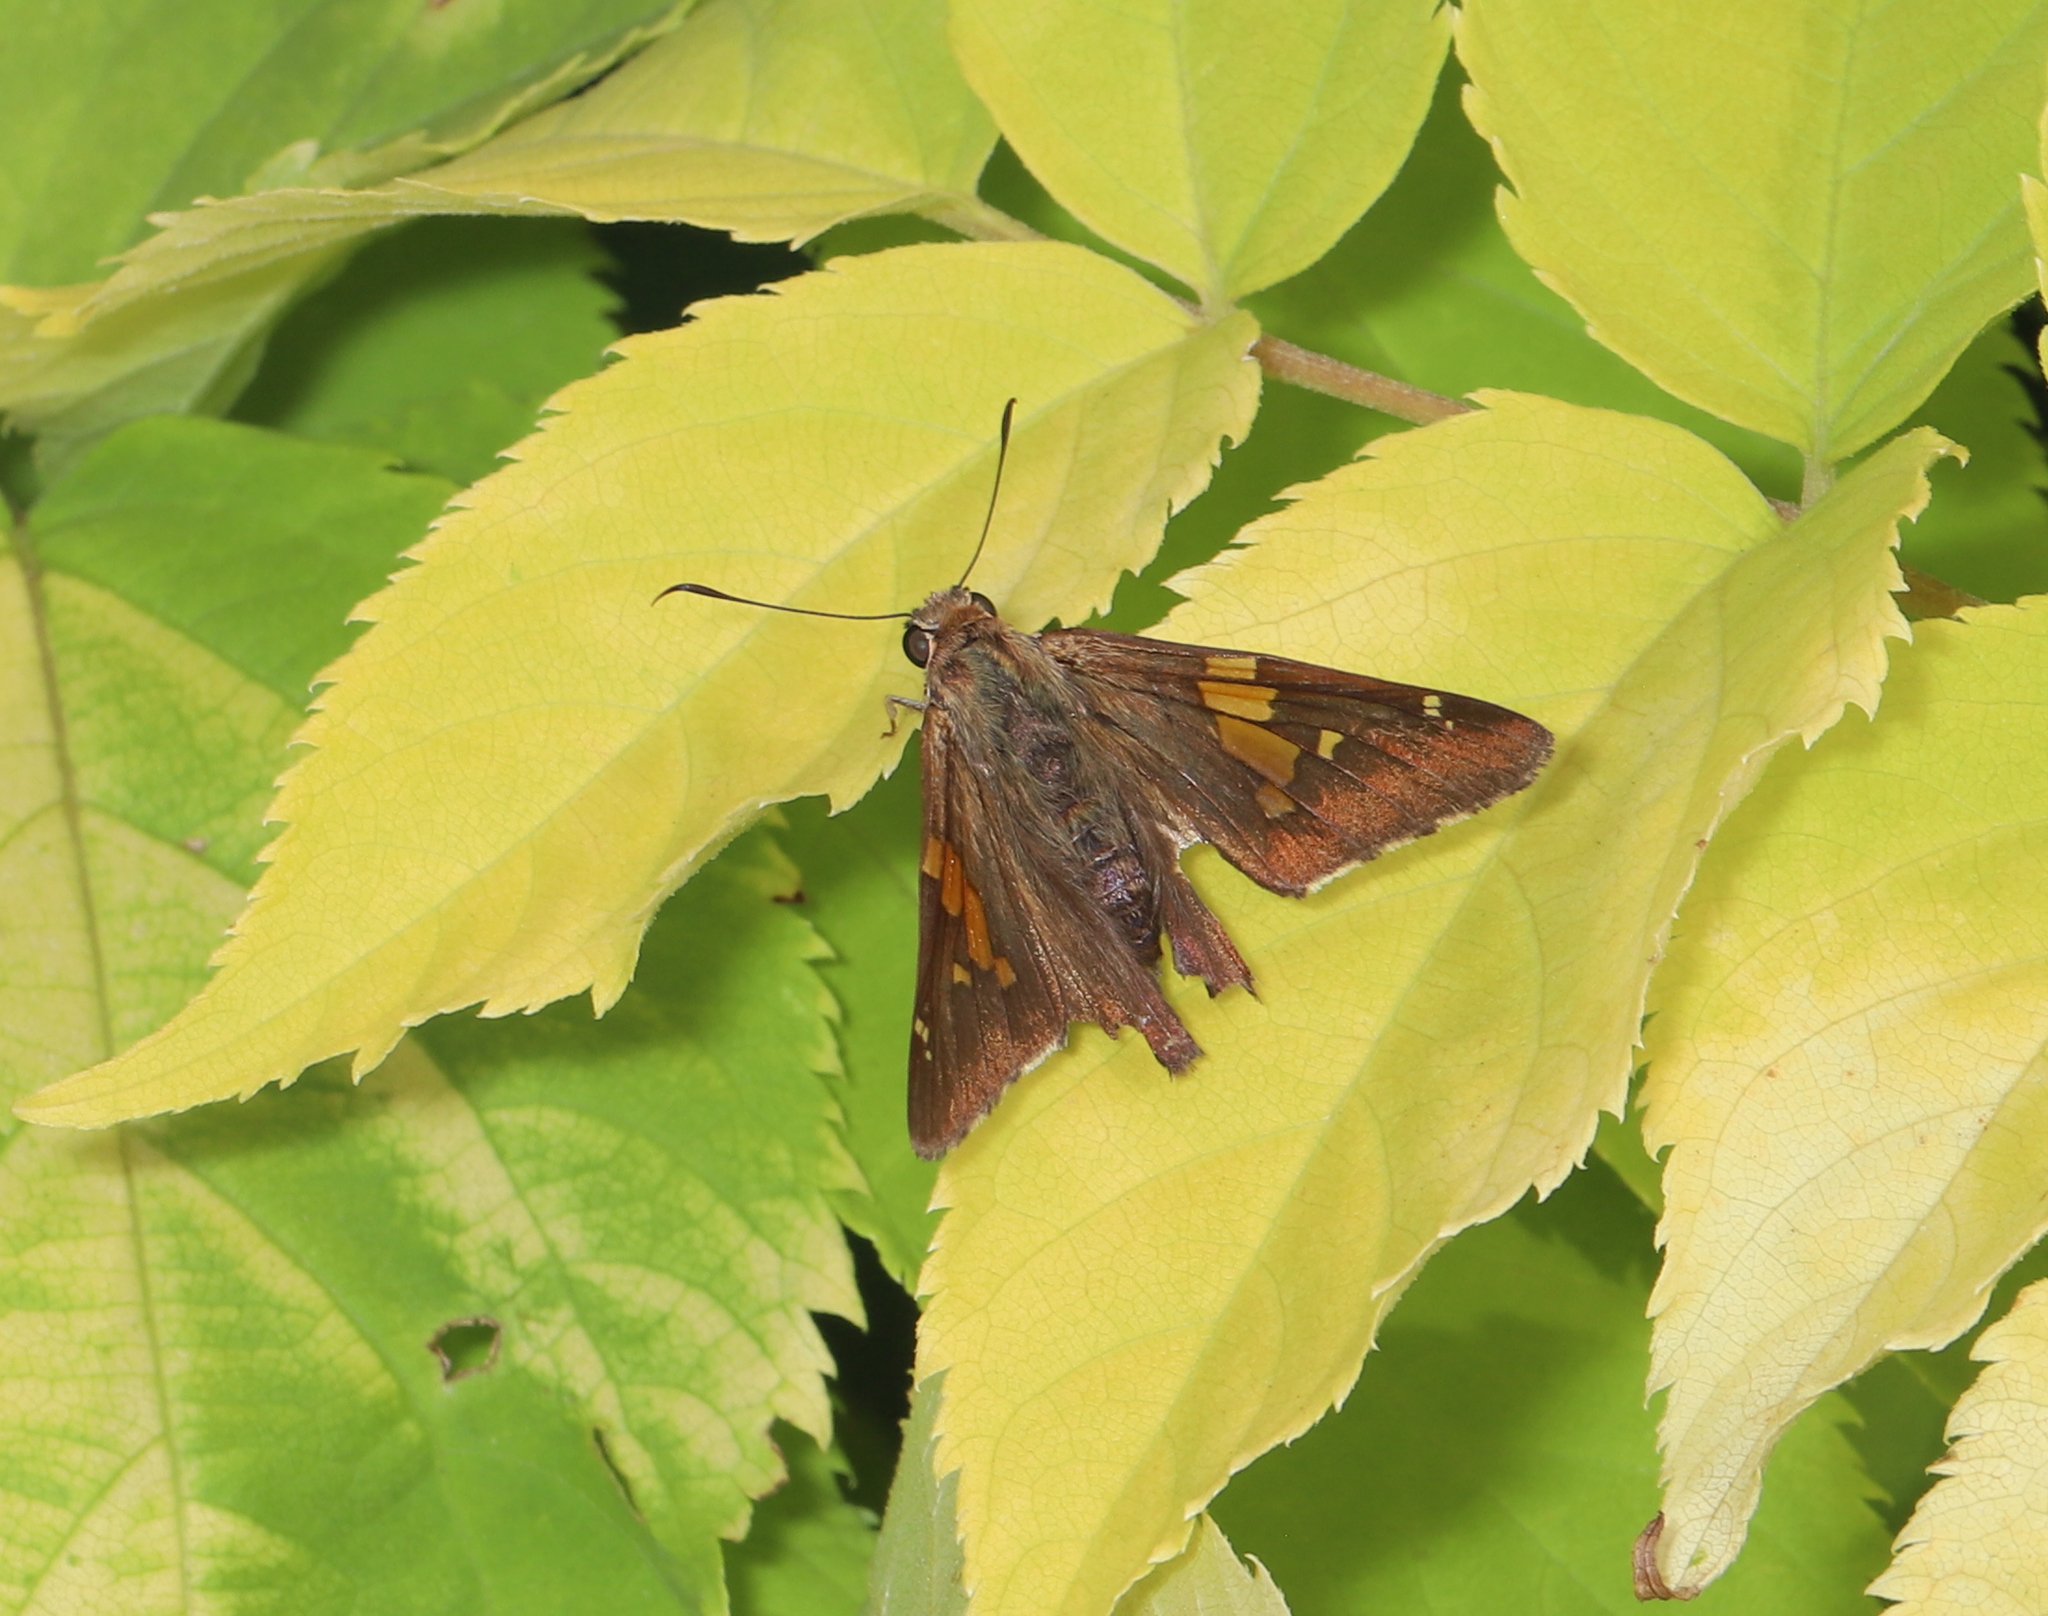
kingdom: Animalia
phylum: Arthropoda
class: Insecta
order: Lepidoptera
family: Hesperiidae
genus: Epargyreus
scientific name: Epargyreus clarus
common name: Silver-spotted skipper
